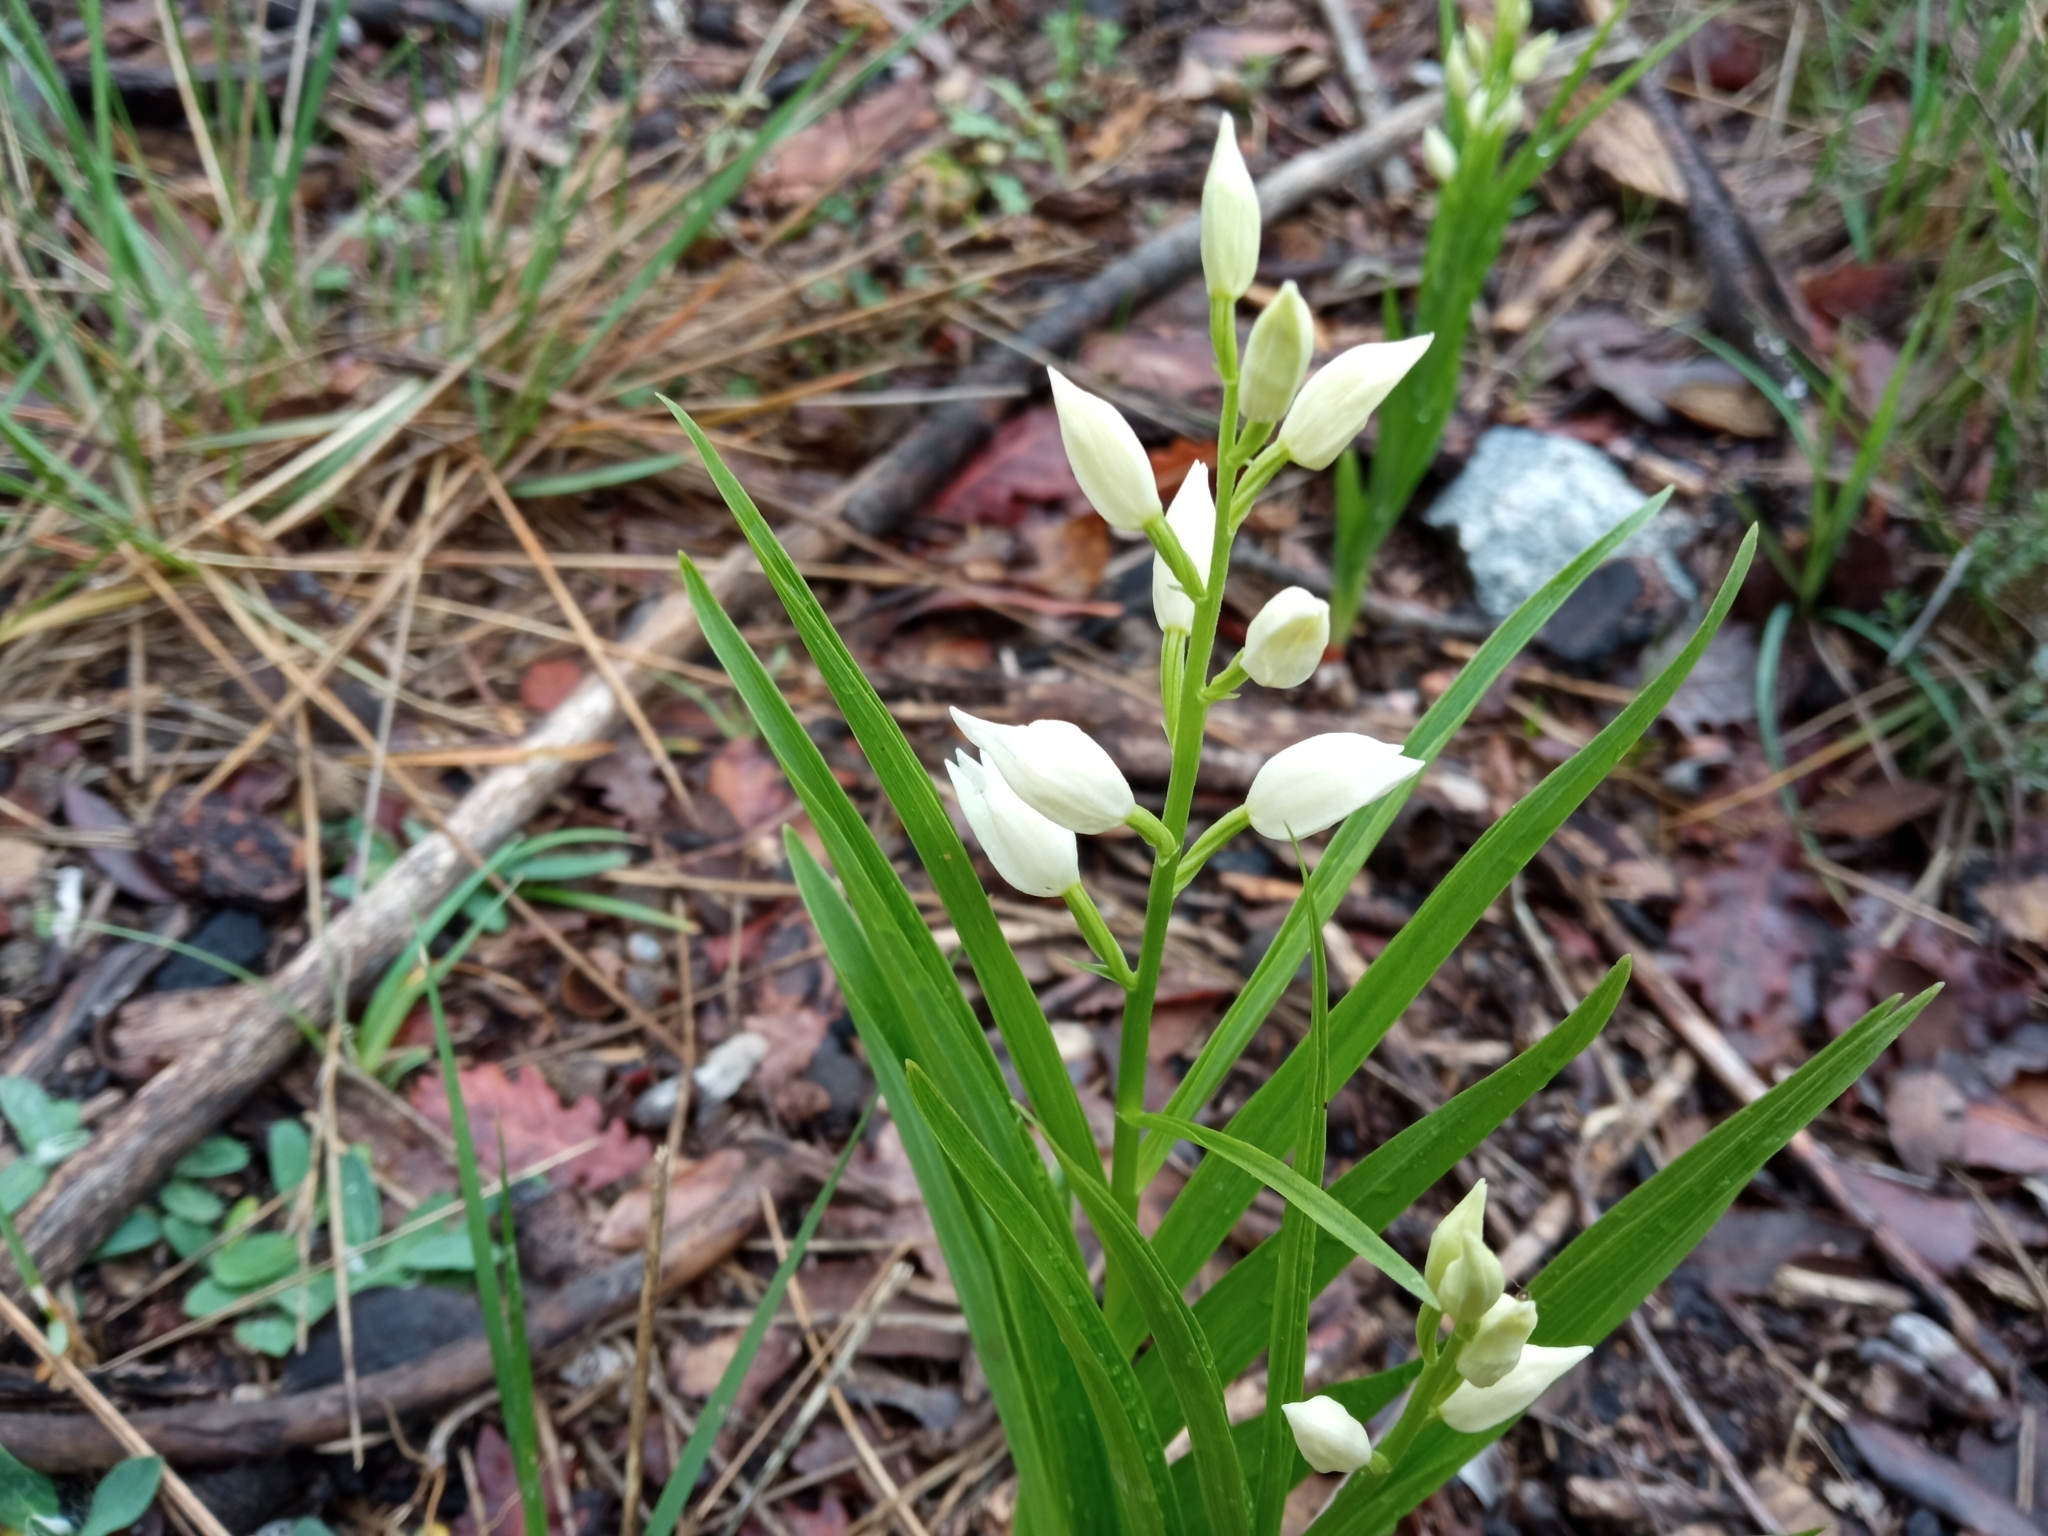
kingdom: Plantae
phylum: Tracheophyta
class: Liliopsida
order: Asparagales
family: Orchidaceae
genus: Cephalanthera
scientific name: Cephalanthera longifolia
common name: Narrow-leaved helleborine
